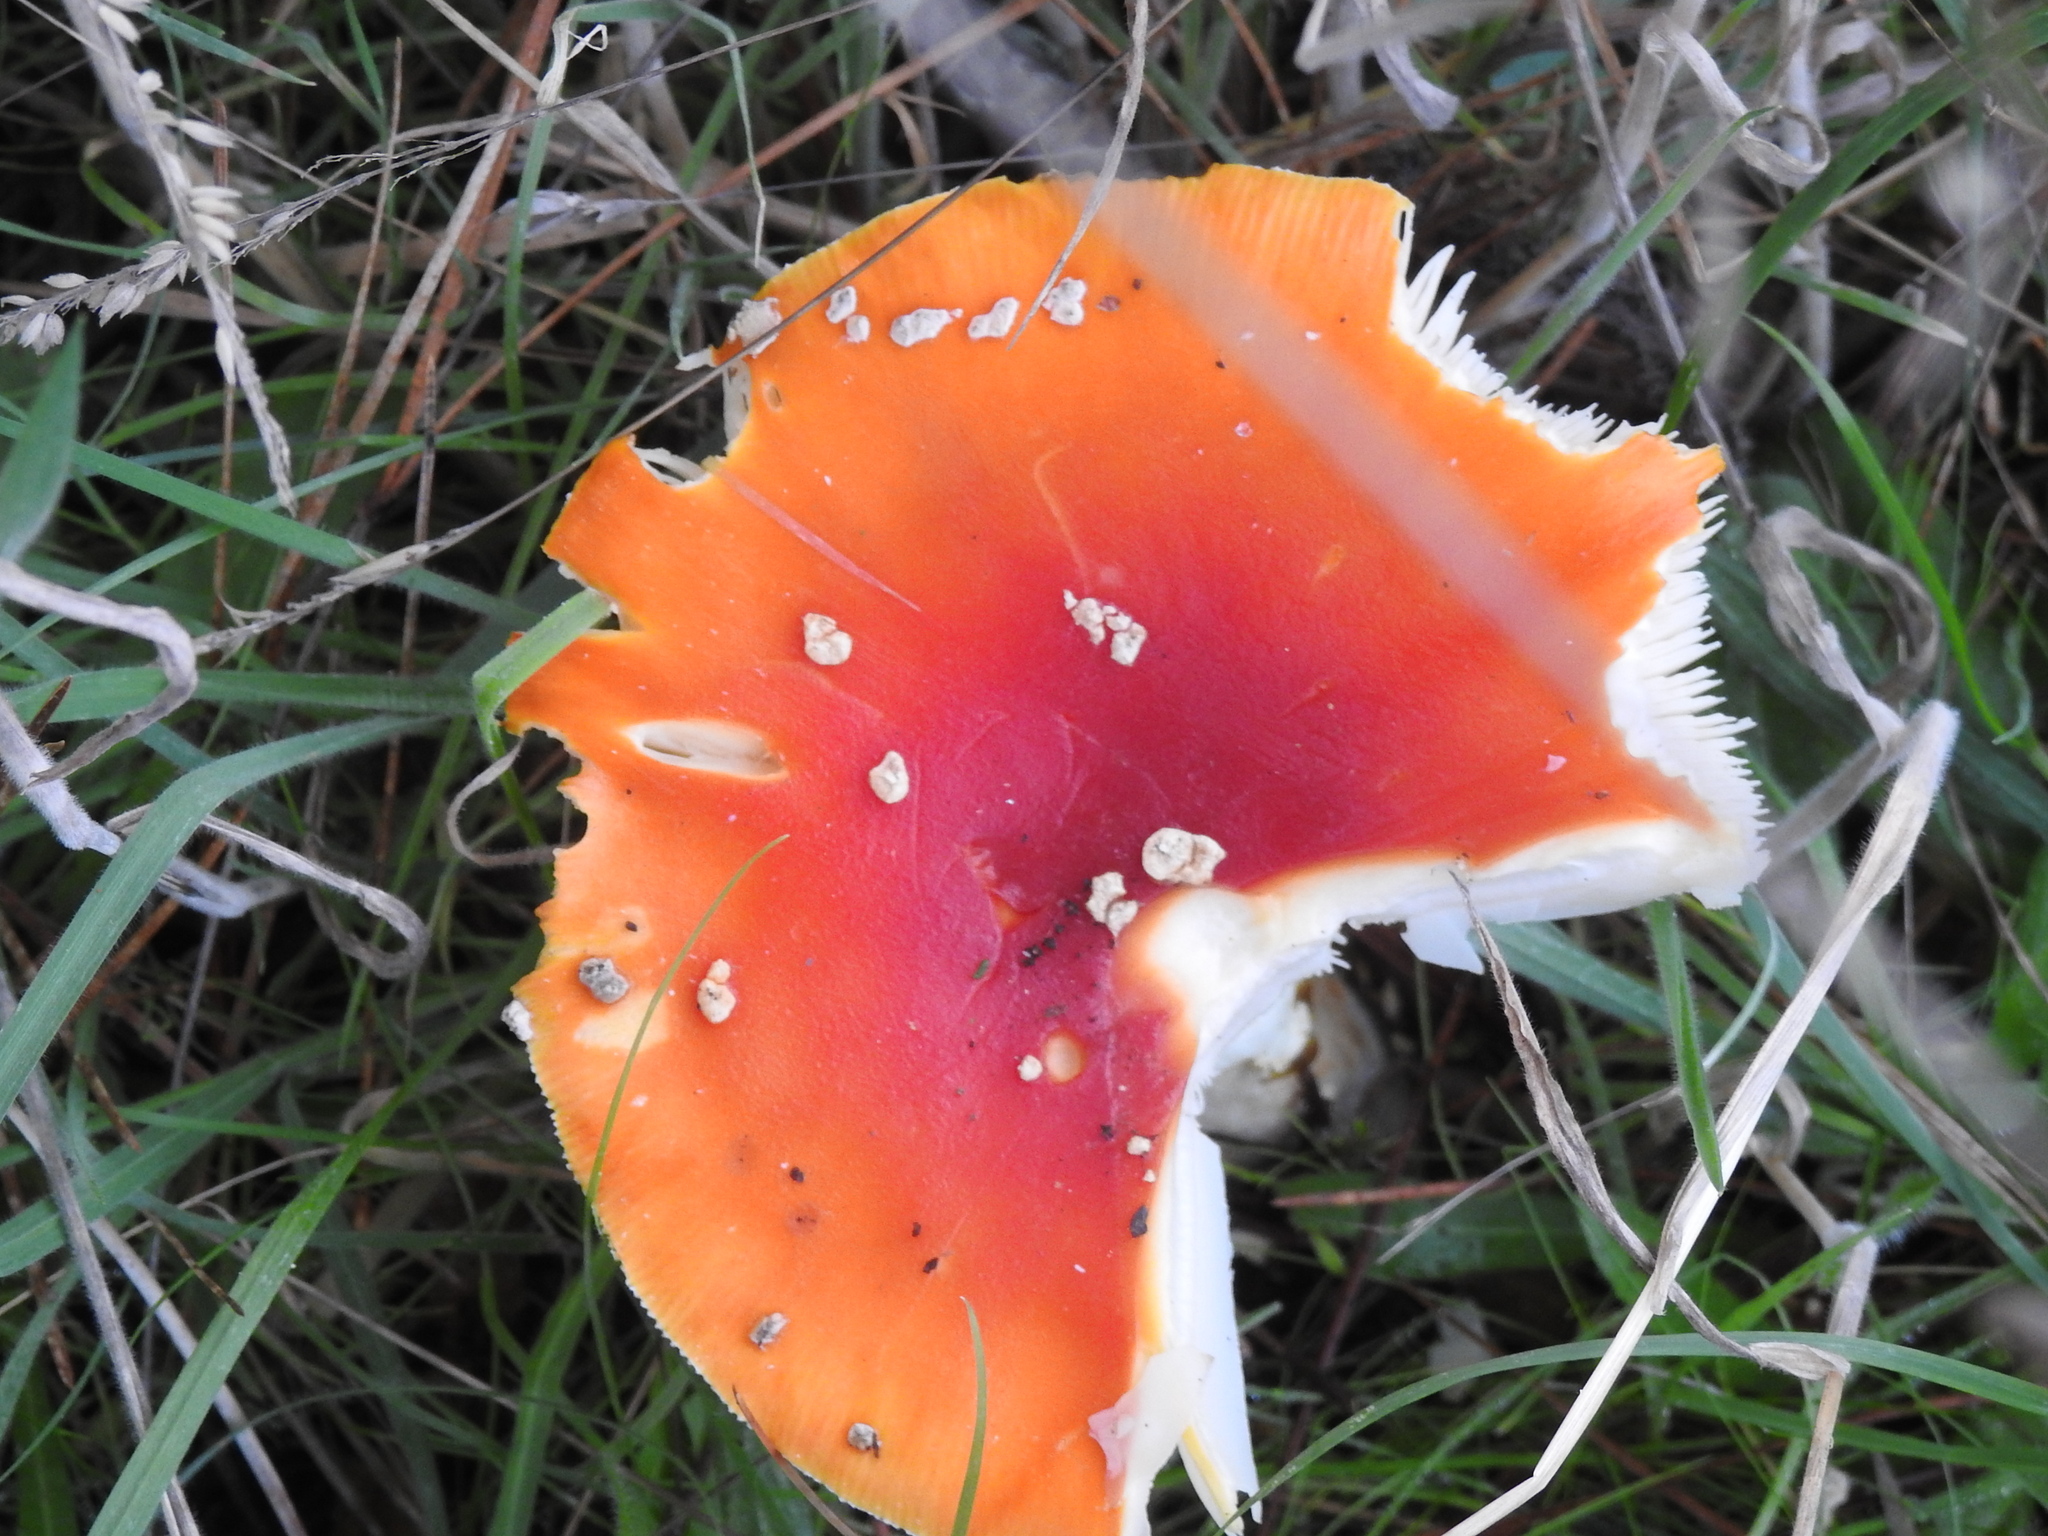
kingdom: Fungi
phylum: Basidiomycota
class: Agaricomycetes
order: Agaricales
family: Amanitaceae
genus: Amanita
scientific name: Amanita muscaria
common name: Fly agaric
